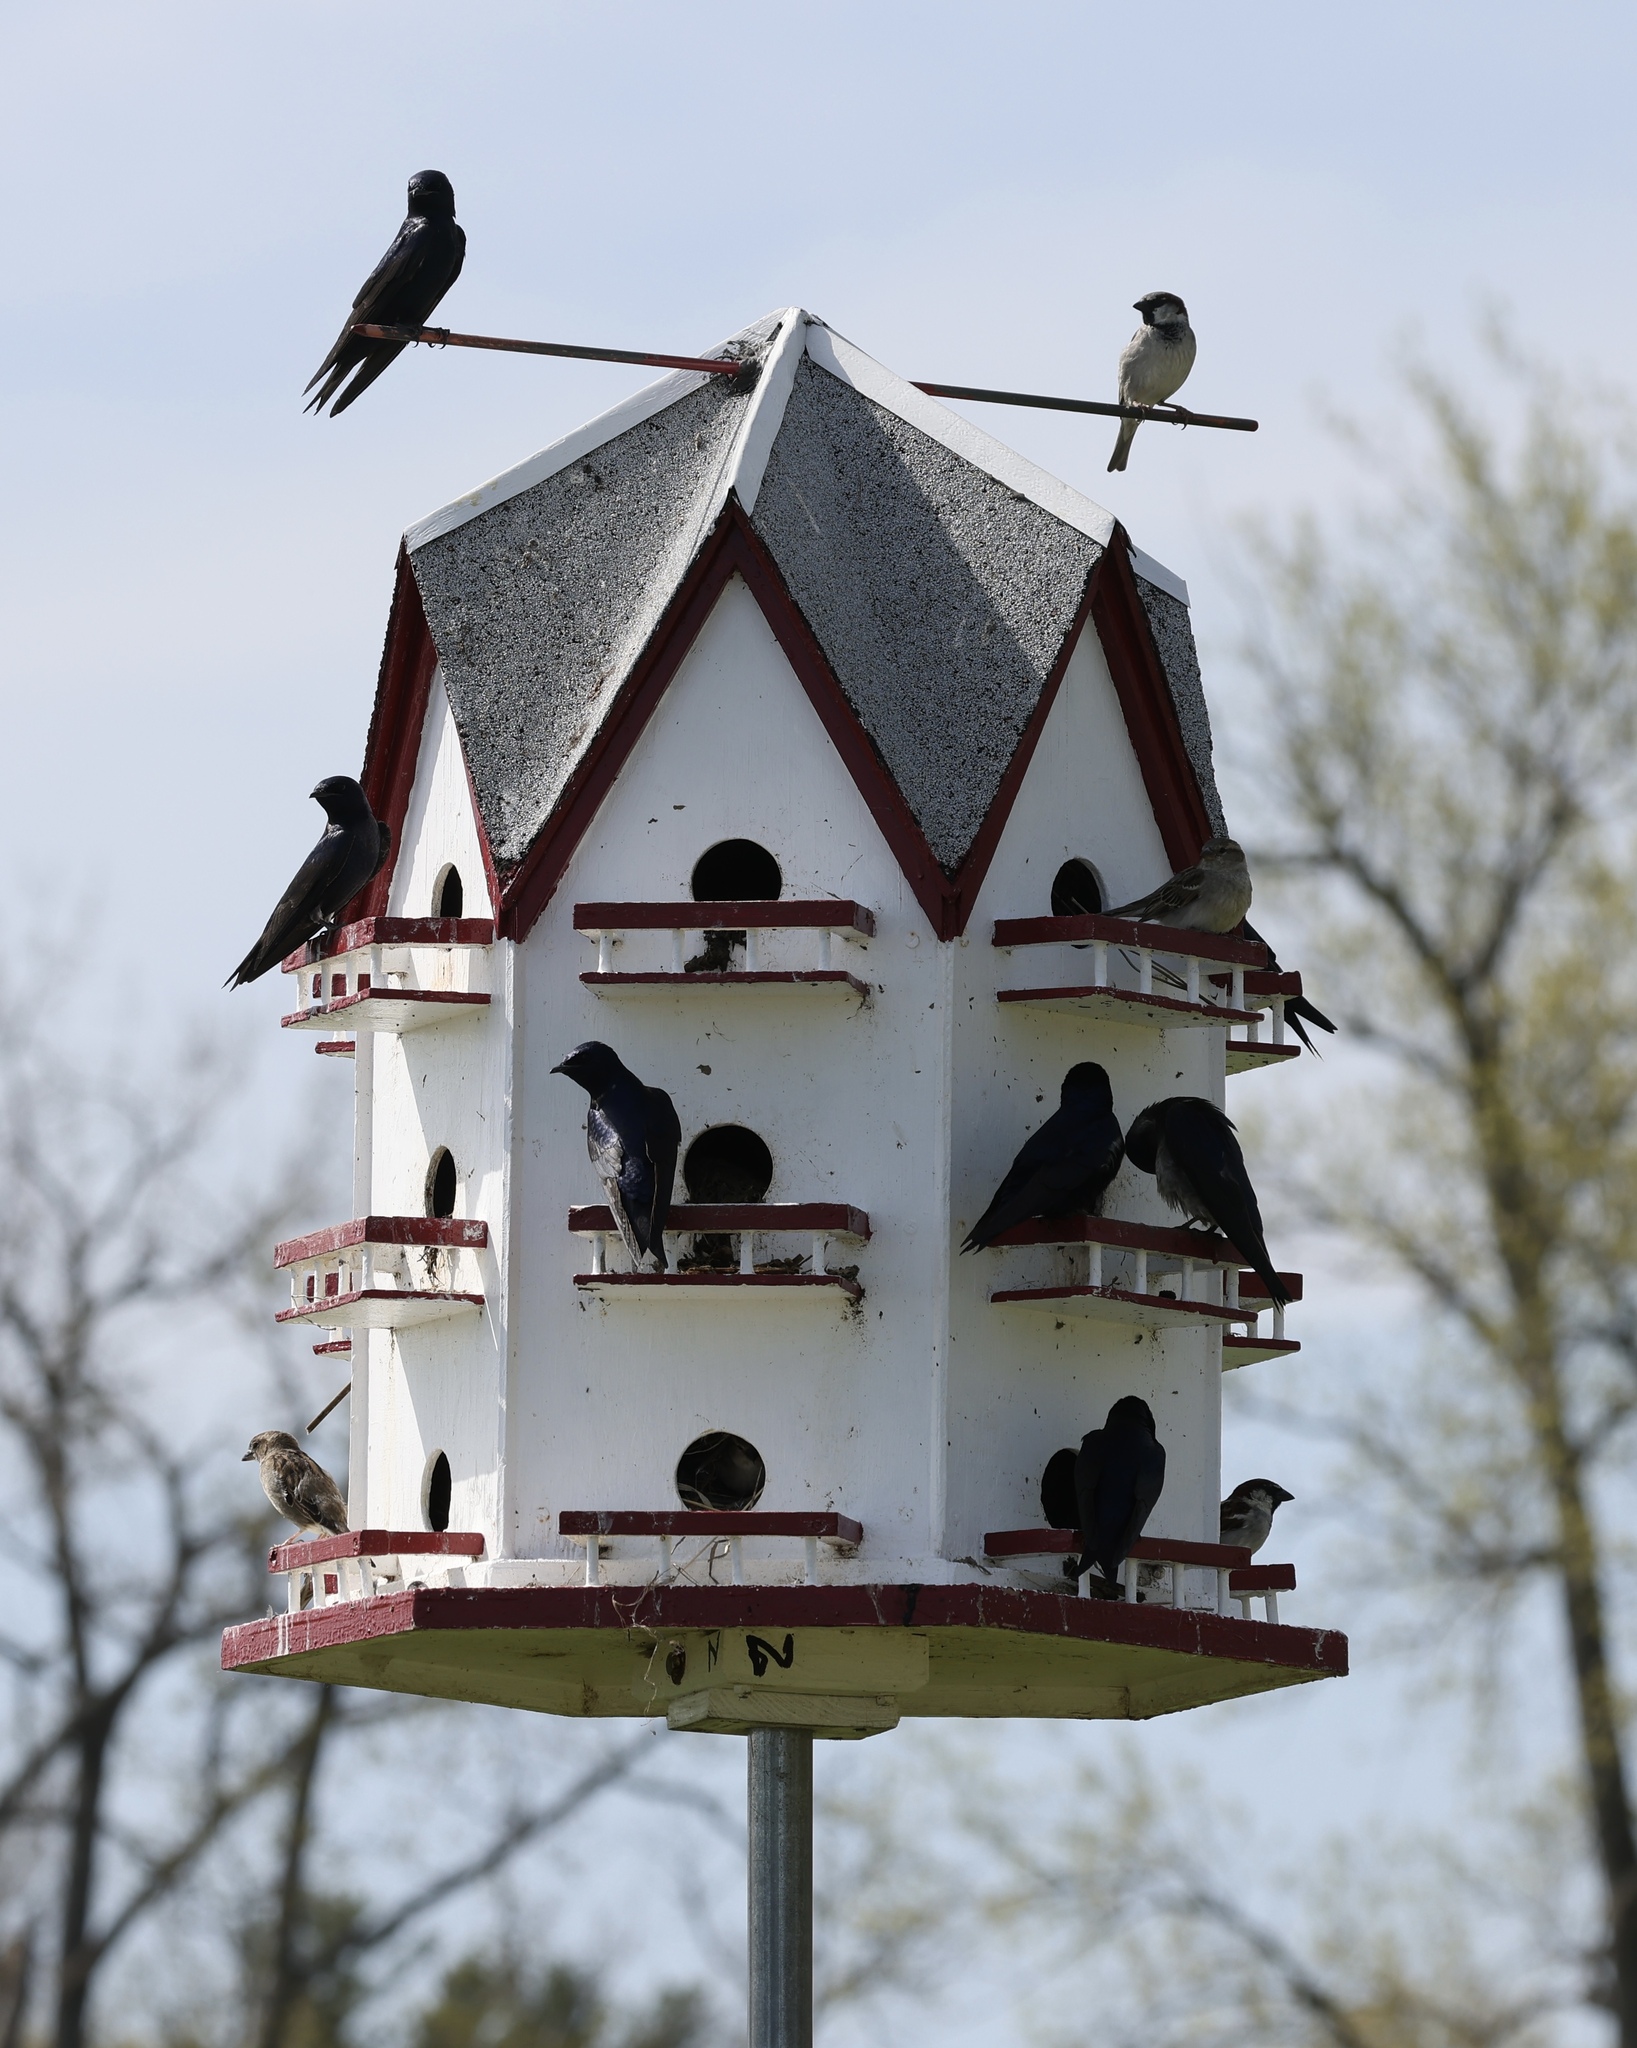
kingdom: Animalia
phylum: Chordata
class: Aves
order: Passeriformes
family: Hirundinidae
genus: Progne
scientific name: Progne subis
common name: Purple martin
